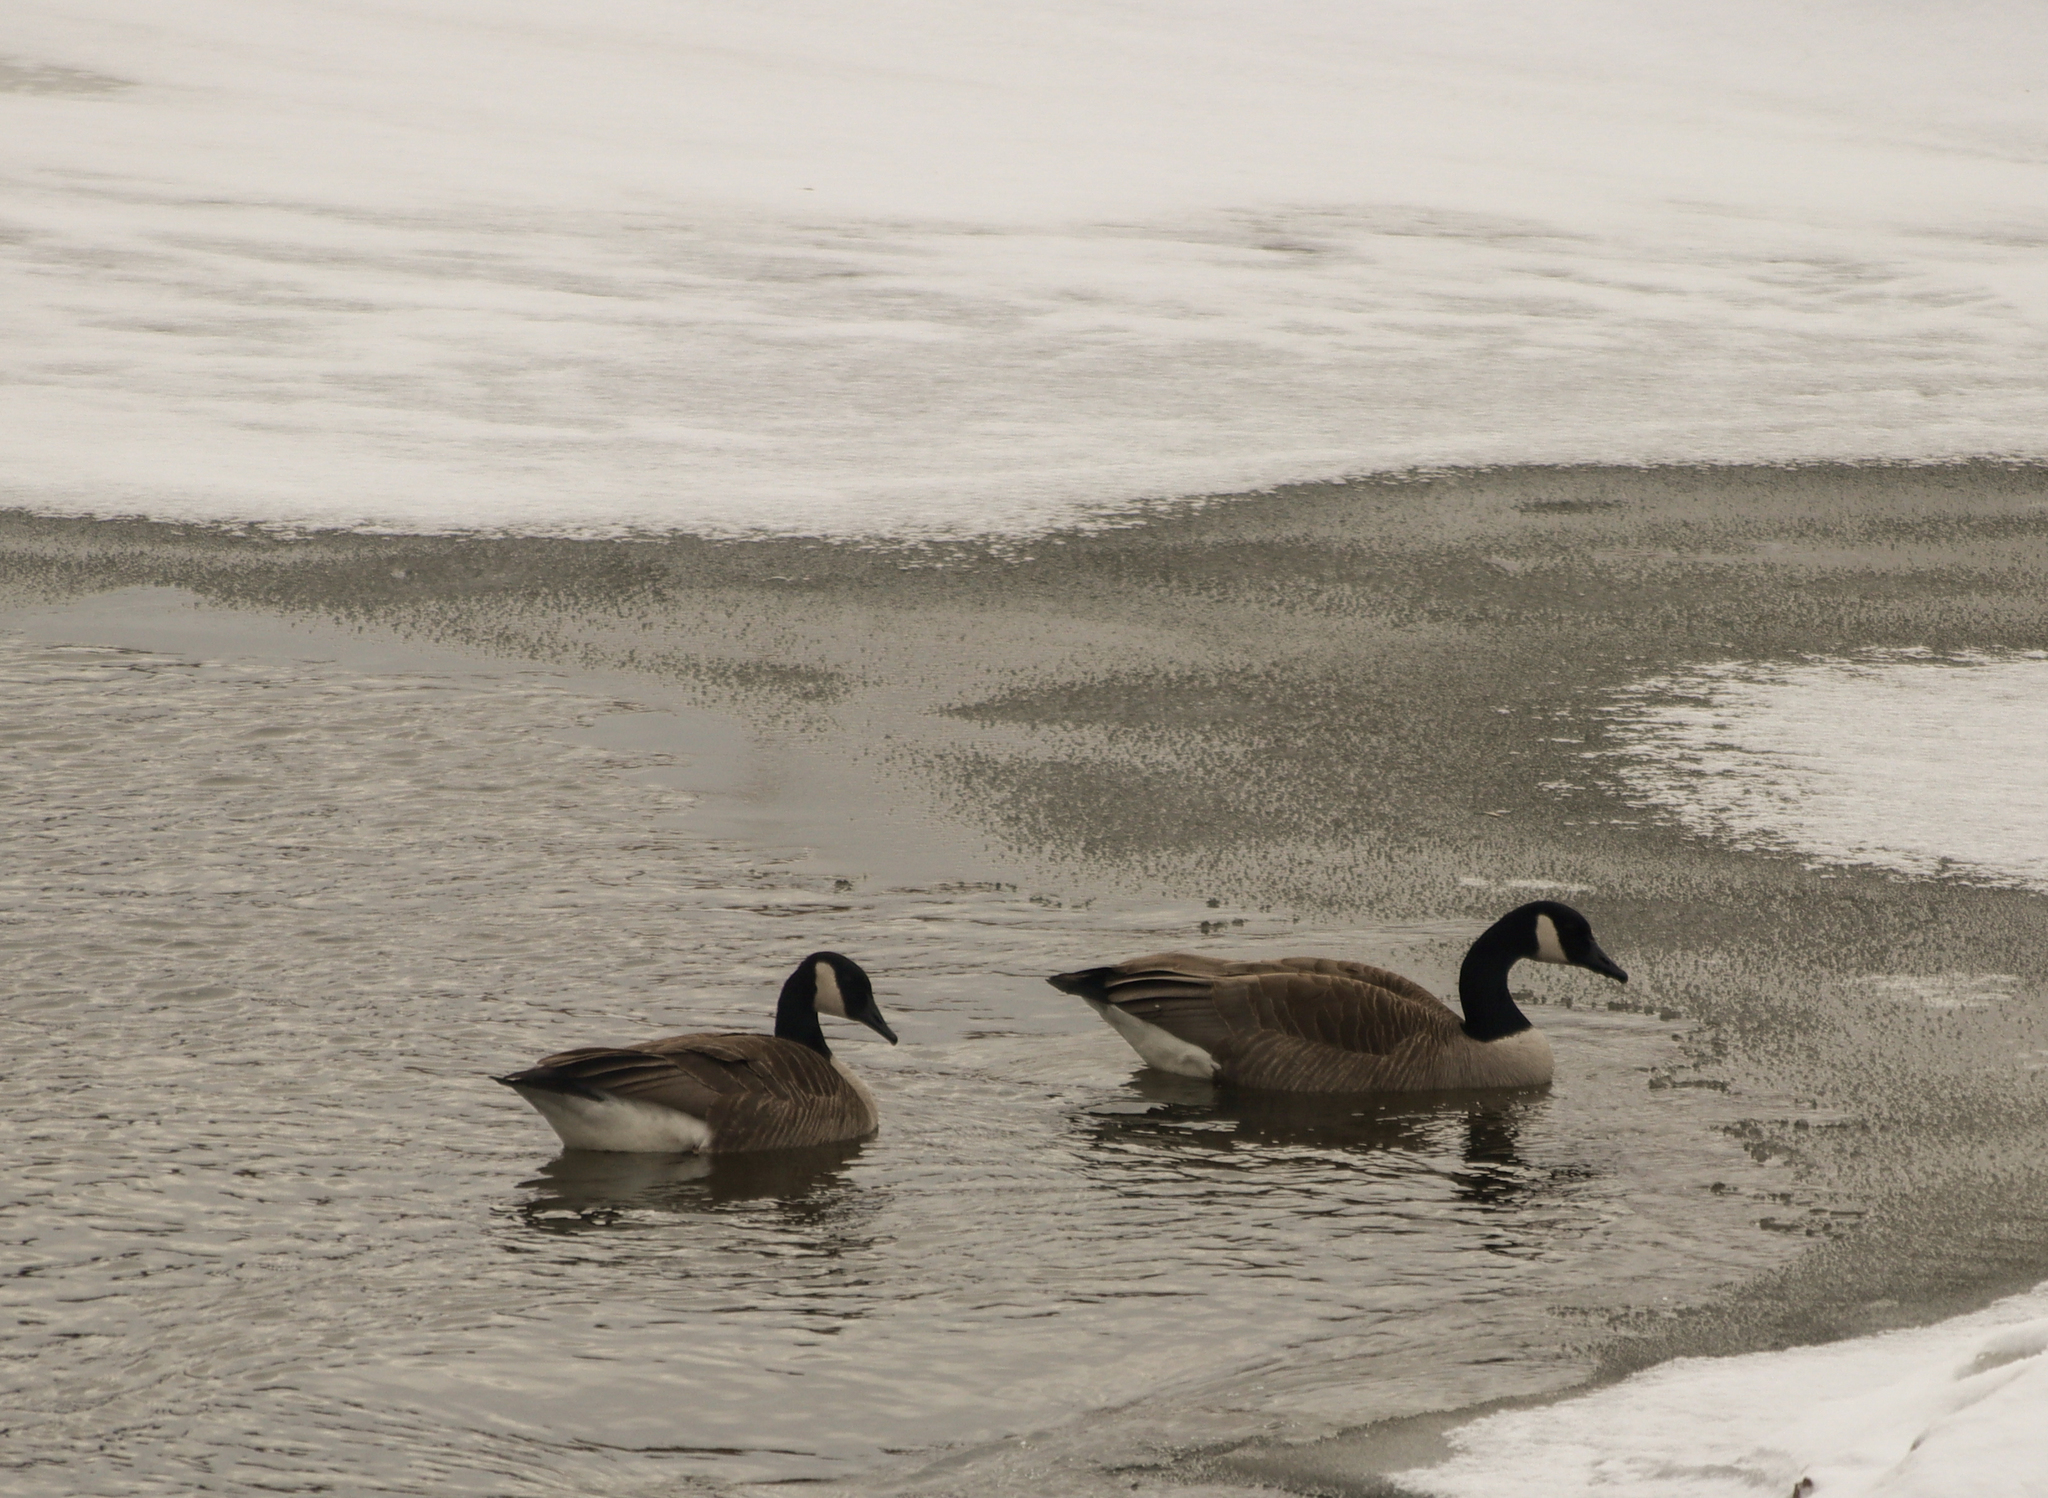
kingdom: Animalia
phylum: Chordata
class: Aves
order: Anseriformes
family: Anatidae
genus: Branta
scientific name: Branta canadensis
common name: Canada goose
